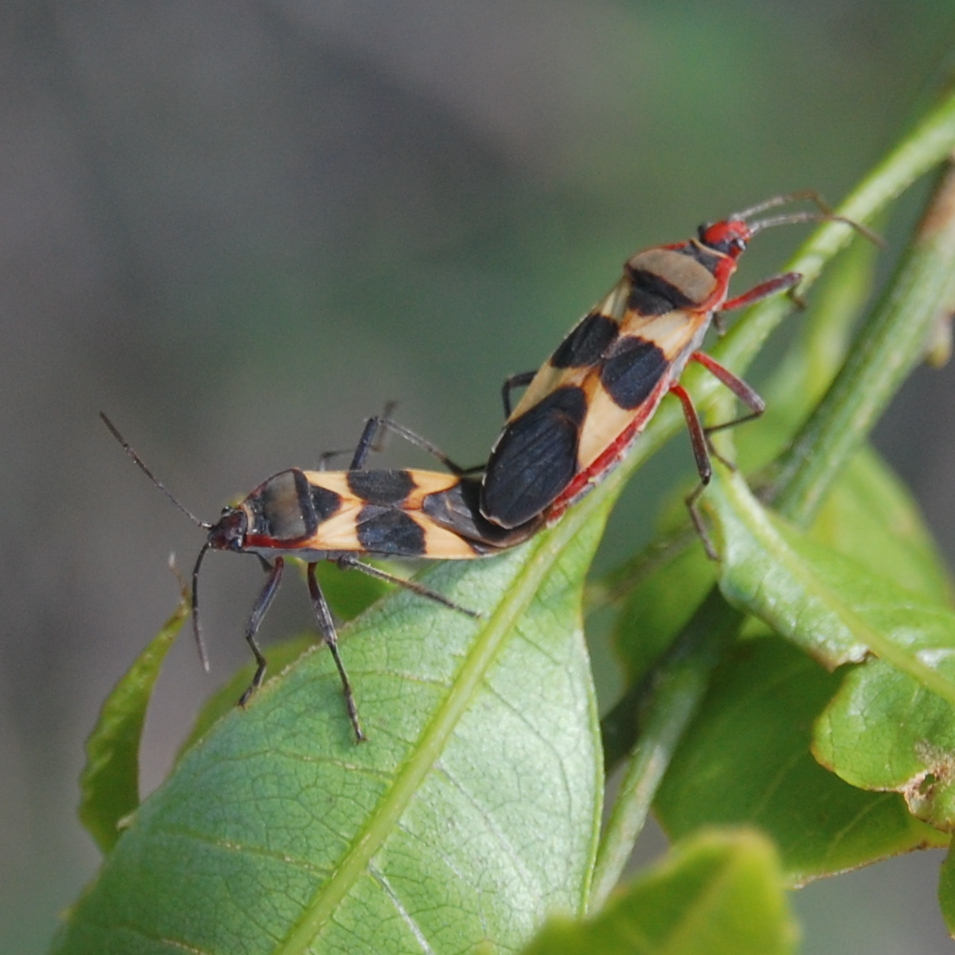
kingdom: Animalia
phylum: Arthropoda
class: Insecta
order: Hemiptera
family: Lygaeidae
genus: Oncopeltus
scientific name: Oncopeltus unifasciatellus
